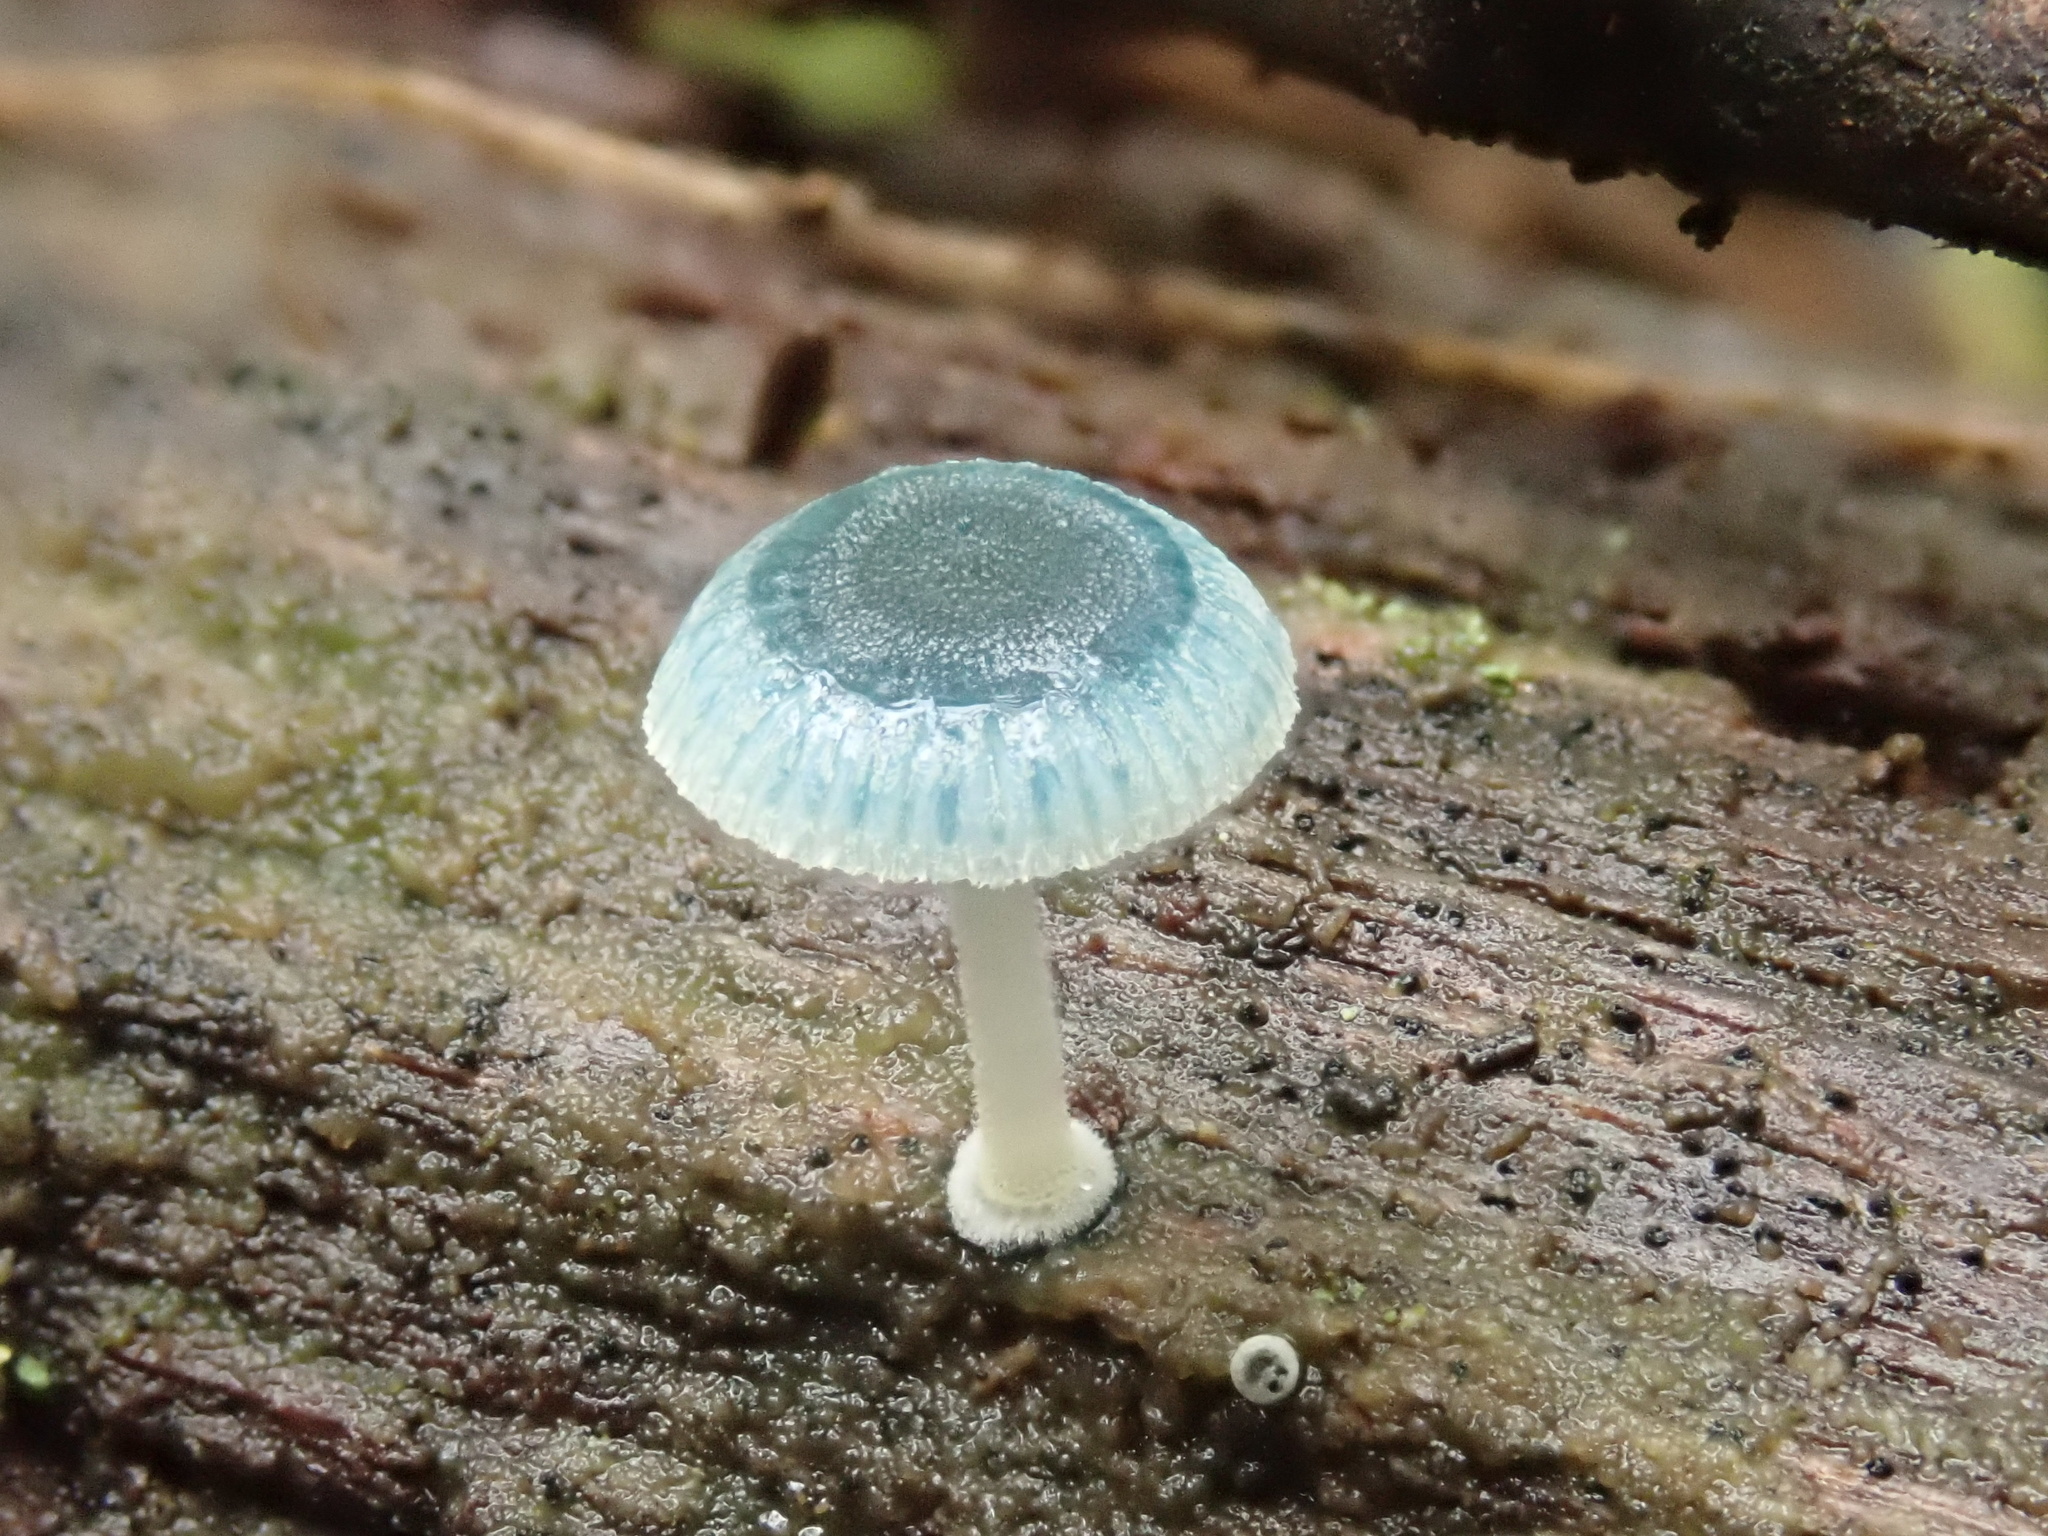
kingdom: Fungi
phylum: Basidiomycota
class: Agaricomycetes
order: Agaricales
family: Mycenaceae
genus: Mycena
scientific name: Mycena interrupta
